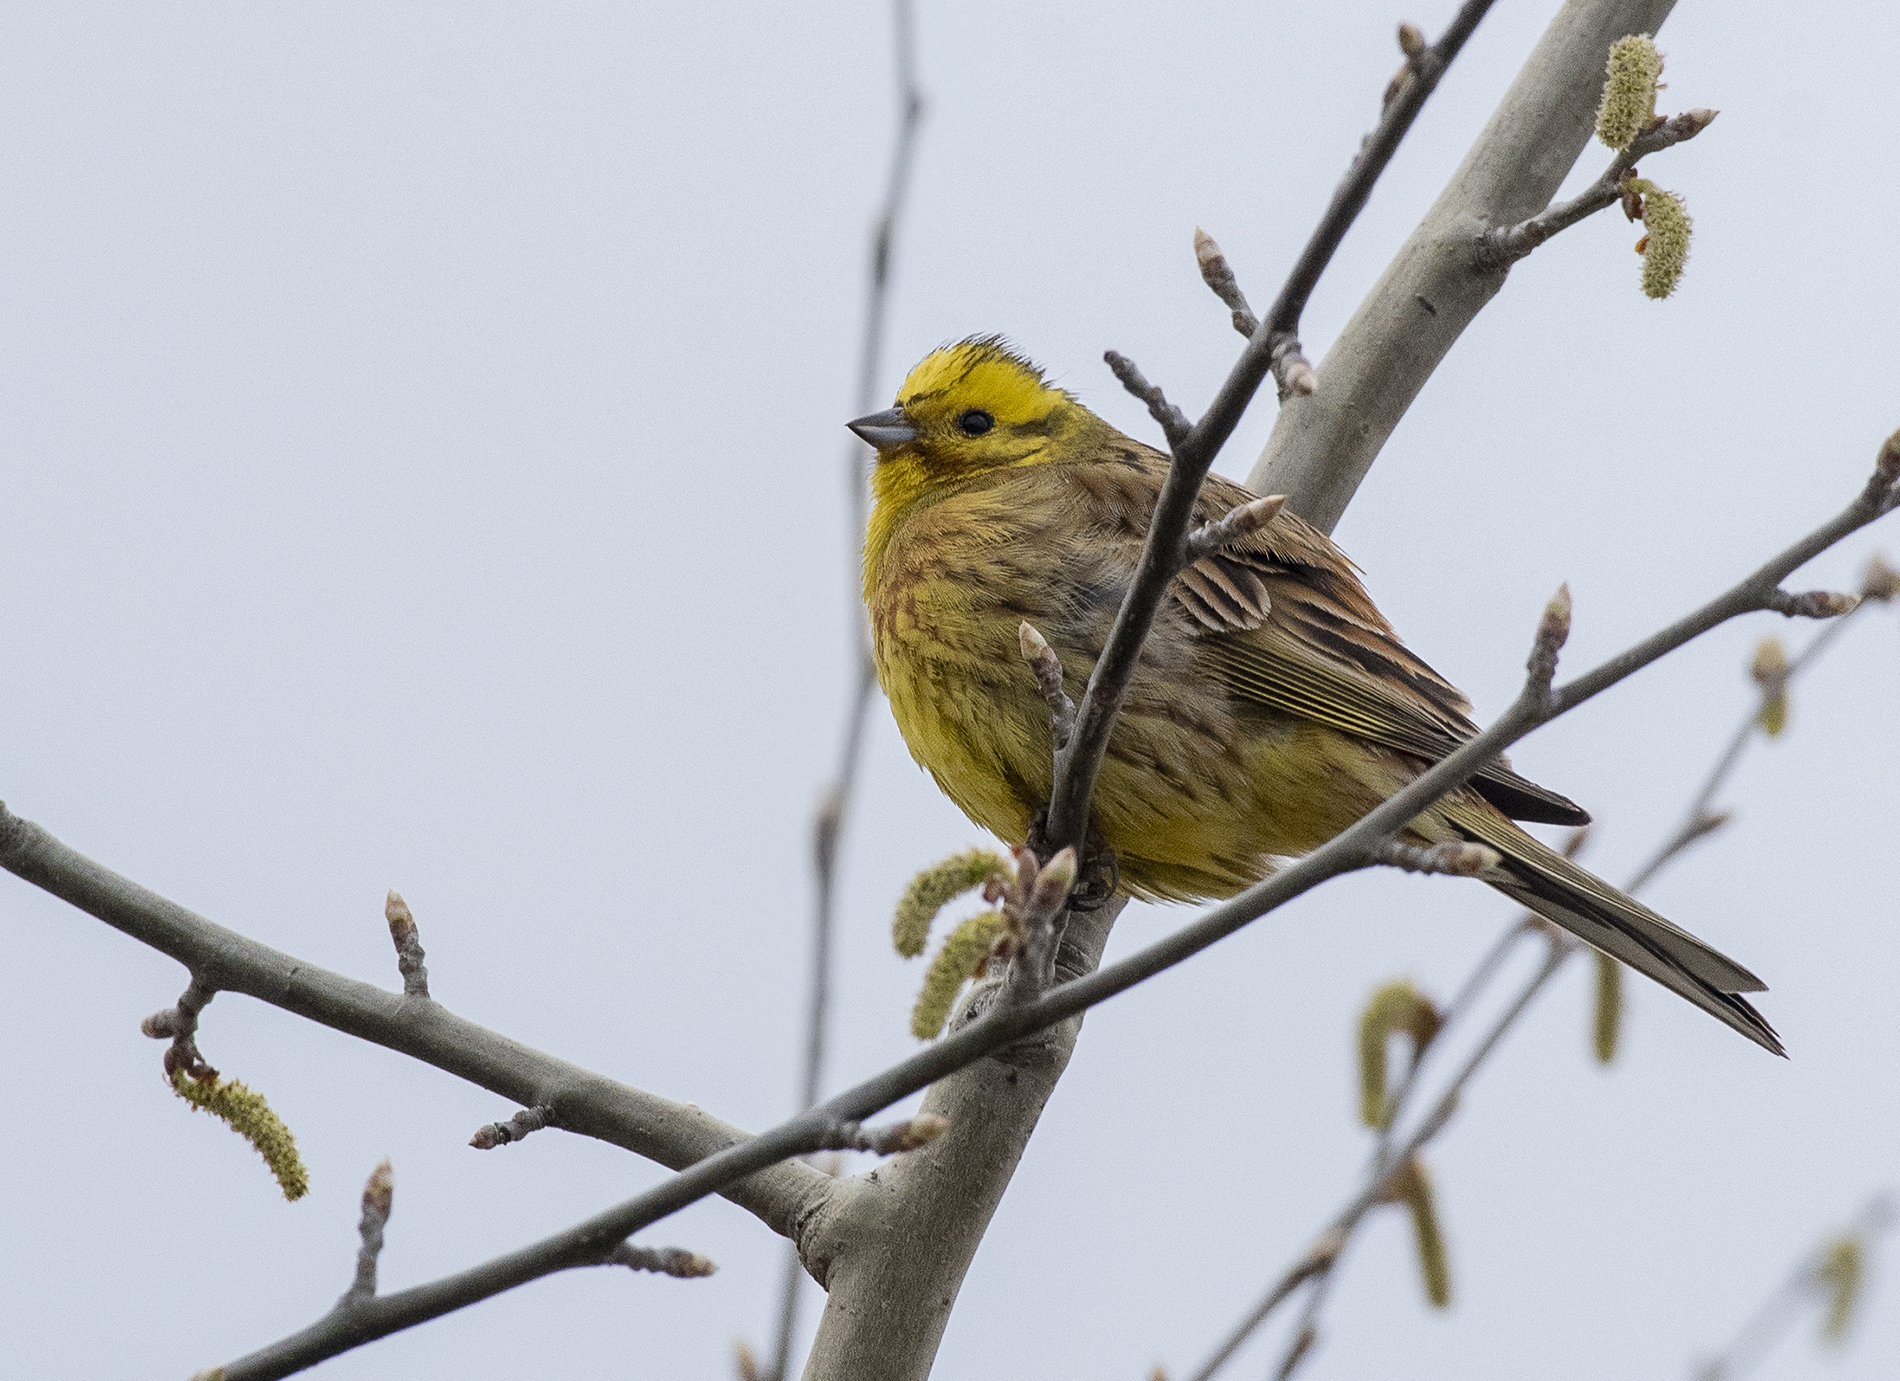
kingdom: Animalia
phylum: Chordata
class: Aves
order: Passeriformes
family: Emberizidae
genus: Emberiza
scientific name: Emberiza citrinella
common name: Yellowhammer
